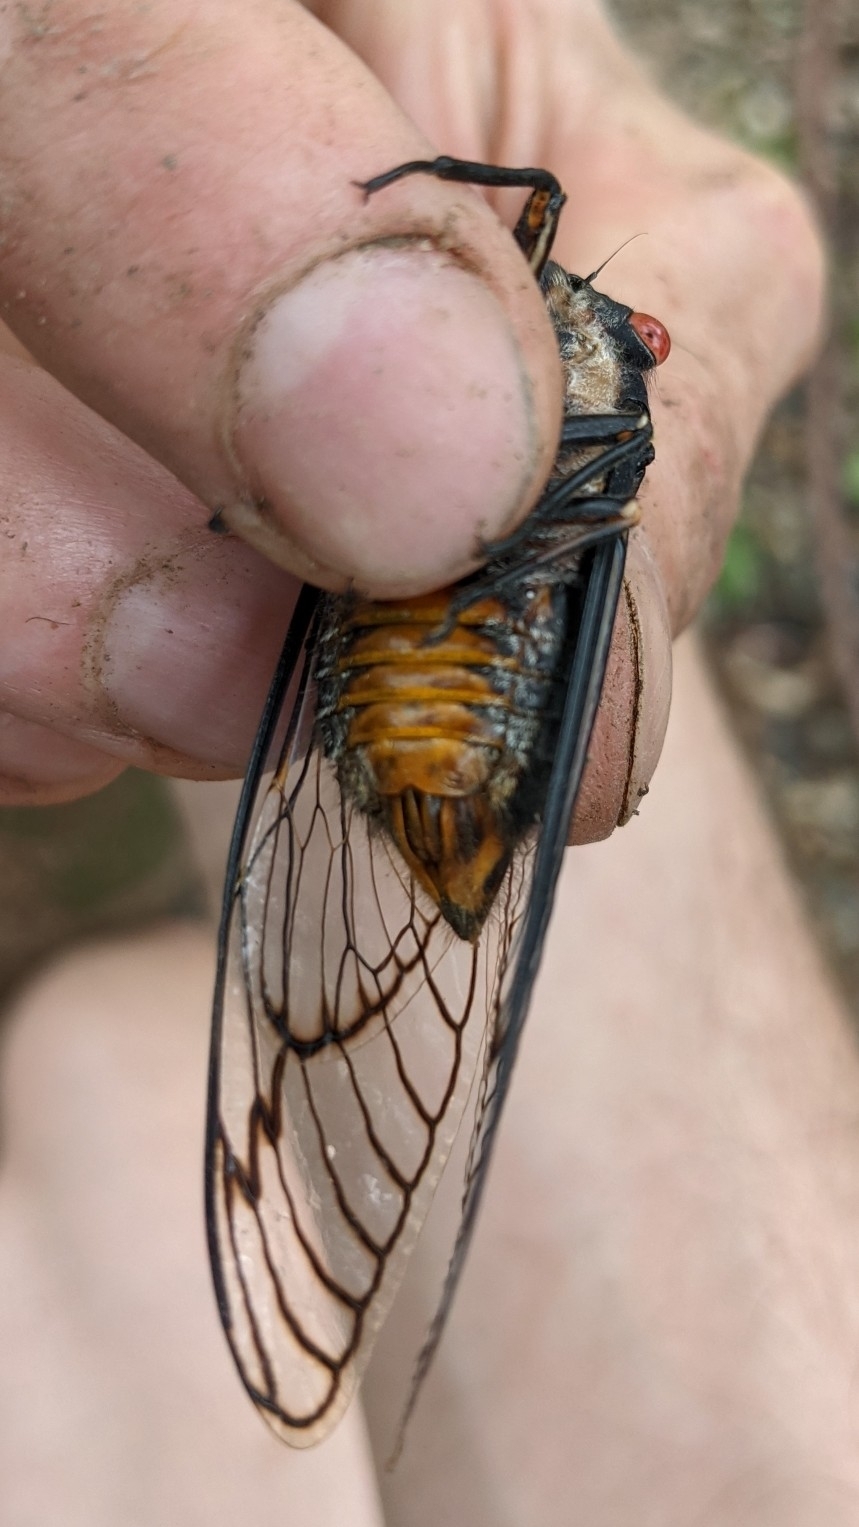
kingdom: Animalia
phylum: Arthropoda
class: Insecta
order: Hemiptera
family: Cicadidae
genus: Psaltoda
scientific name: Psaltoda moerens
